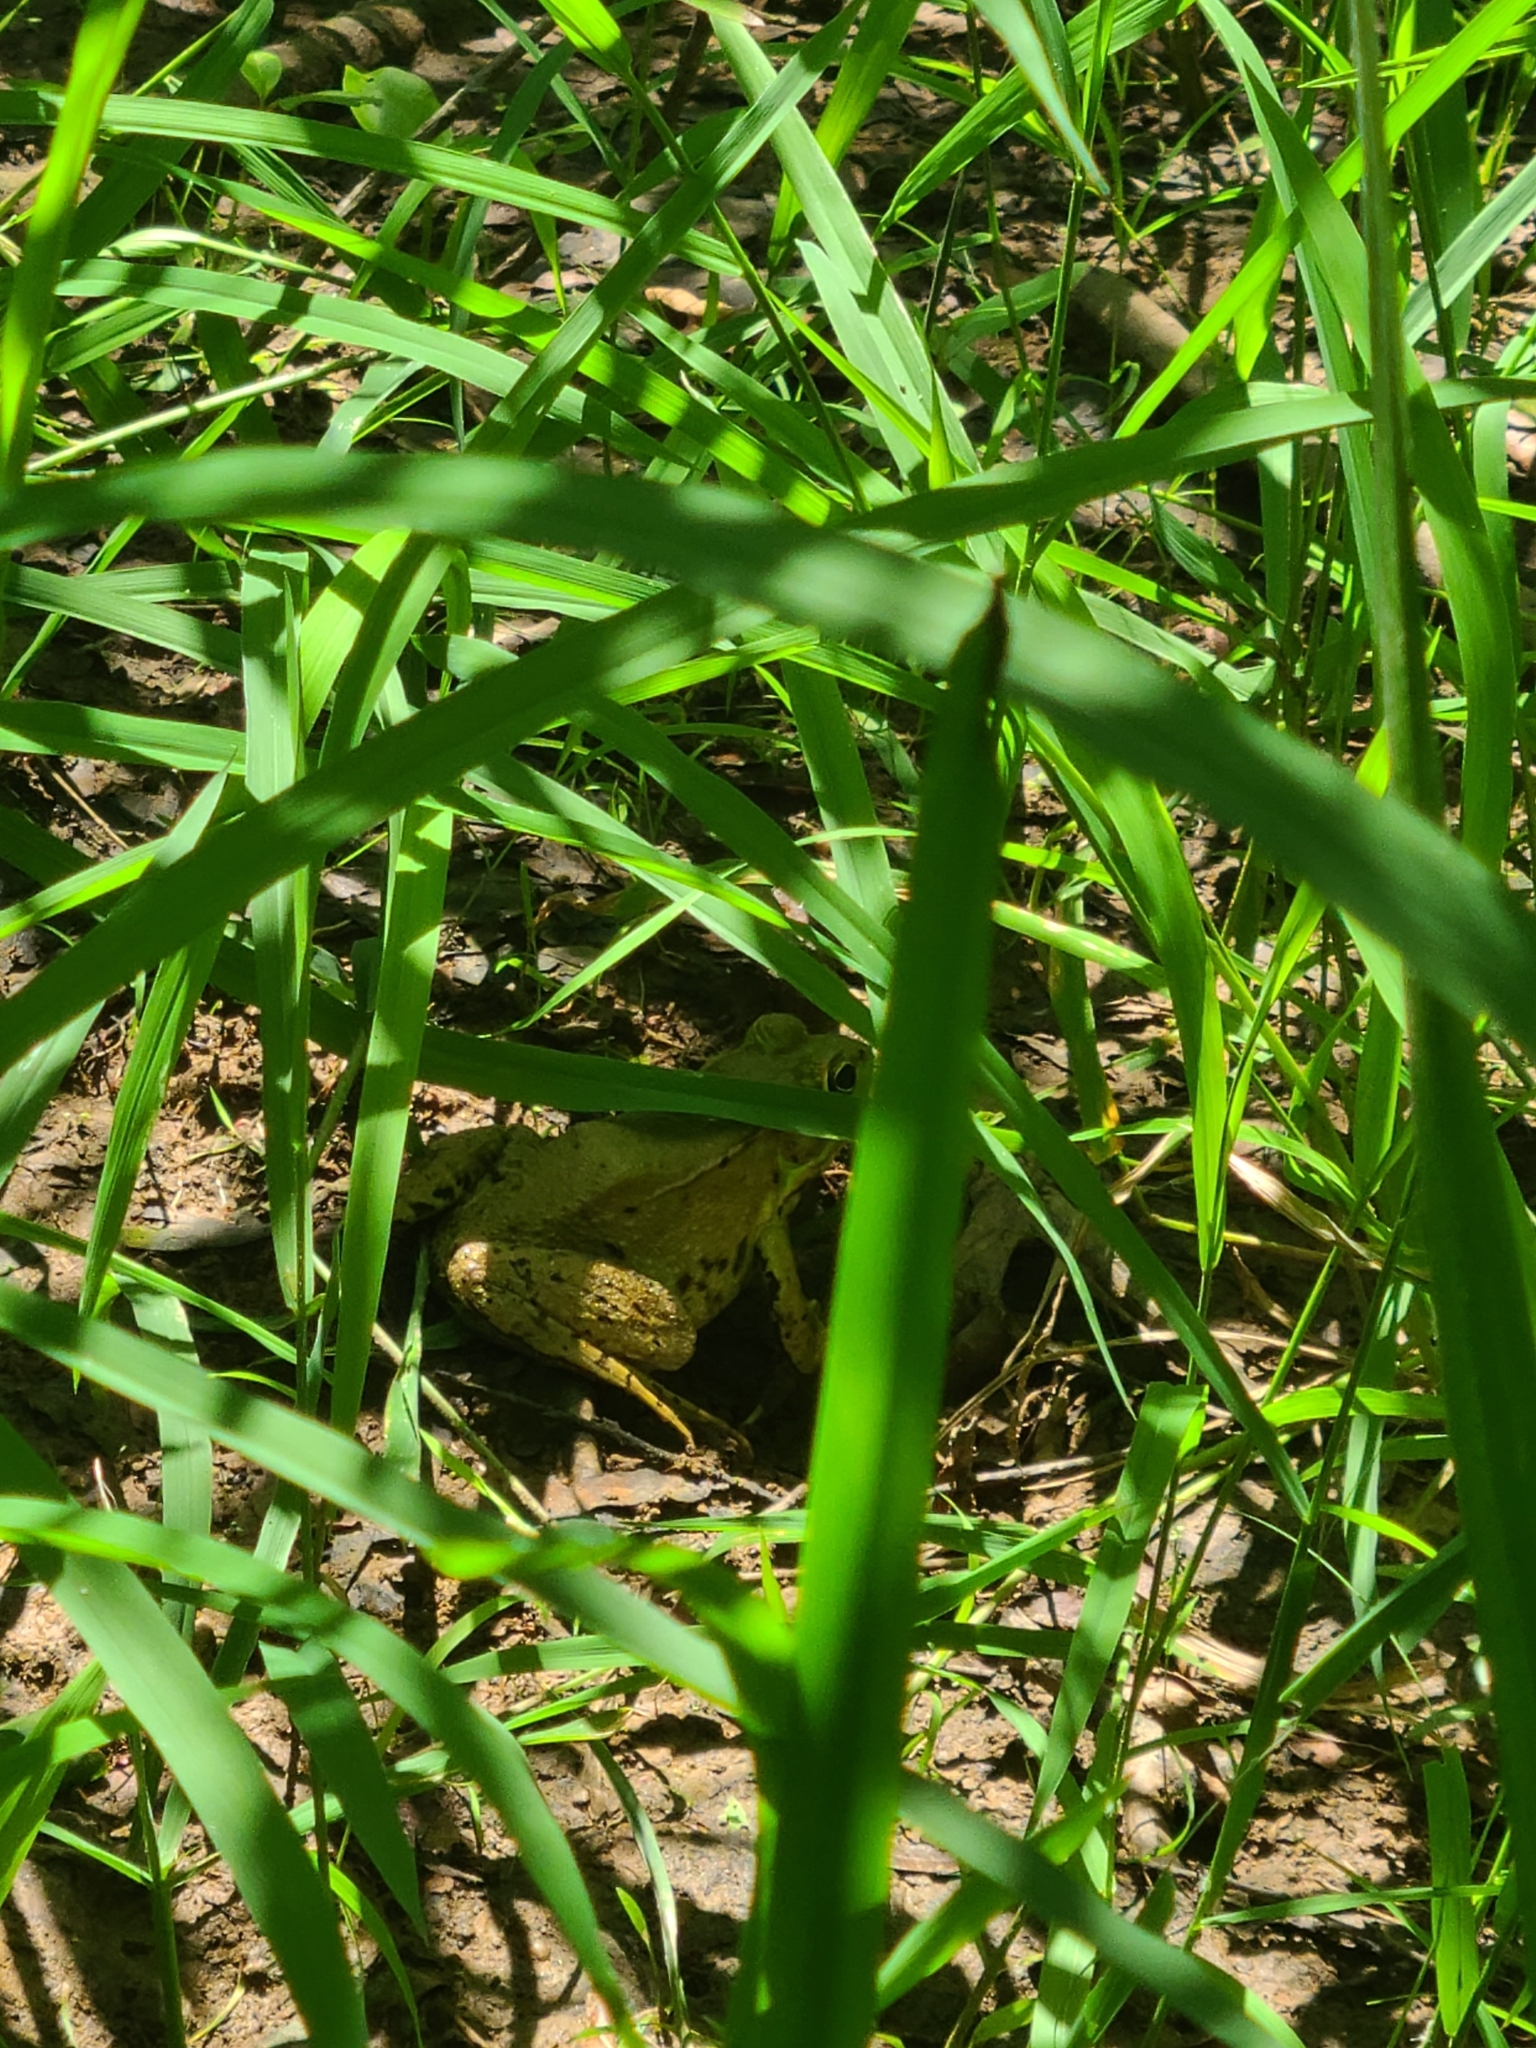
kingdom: Animalia
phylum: Chordata
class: Amphibia
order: Anura
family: Ranidae
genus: Lithobates
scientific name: Lithobates clamitans
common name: Green frog
